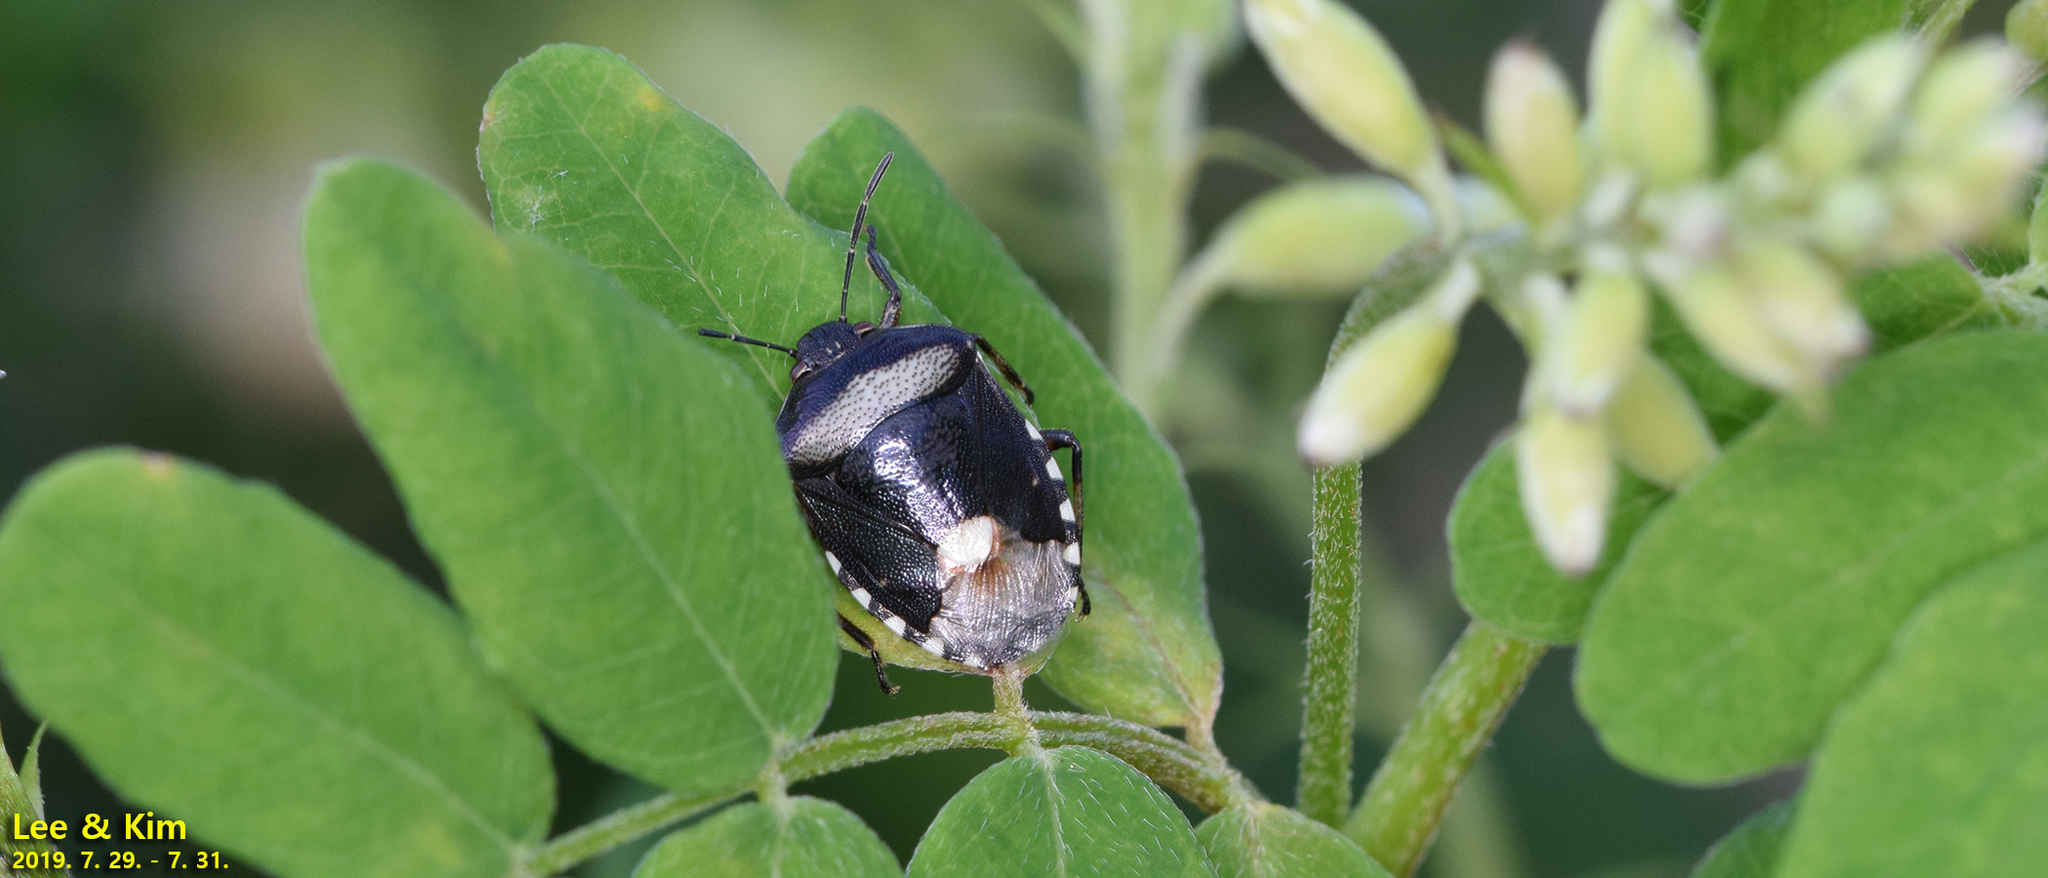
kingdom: Animalia
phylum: Arthropoda
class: Insecta
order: Hemiptera
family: Pentatomidae
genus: Menida
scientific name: Menida violacea
